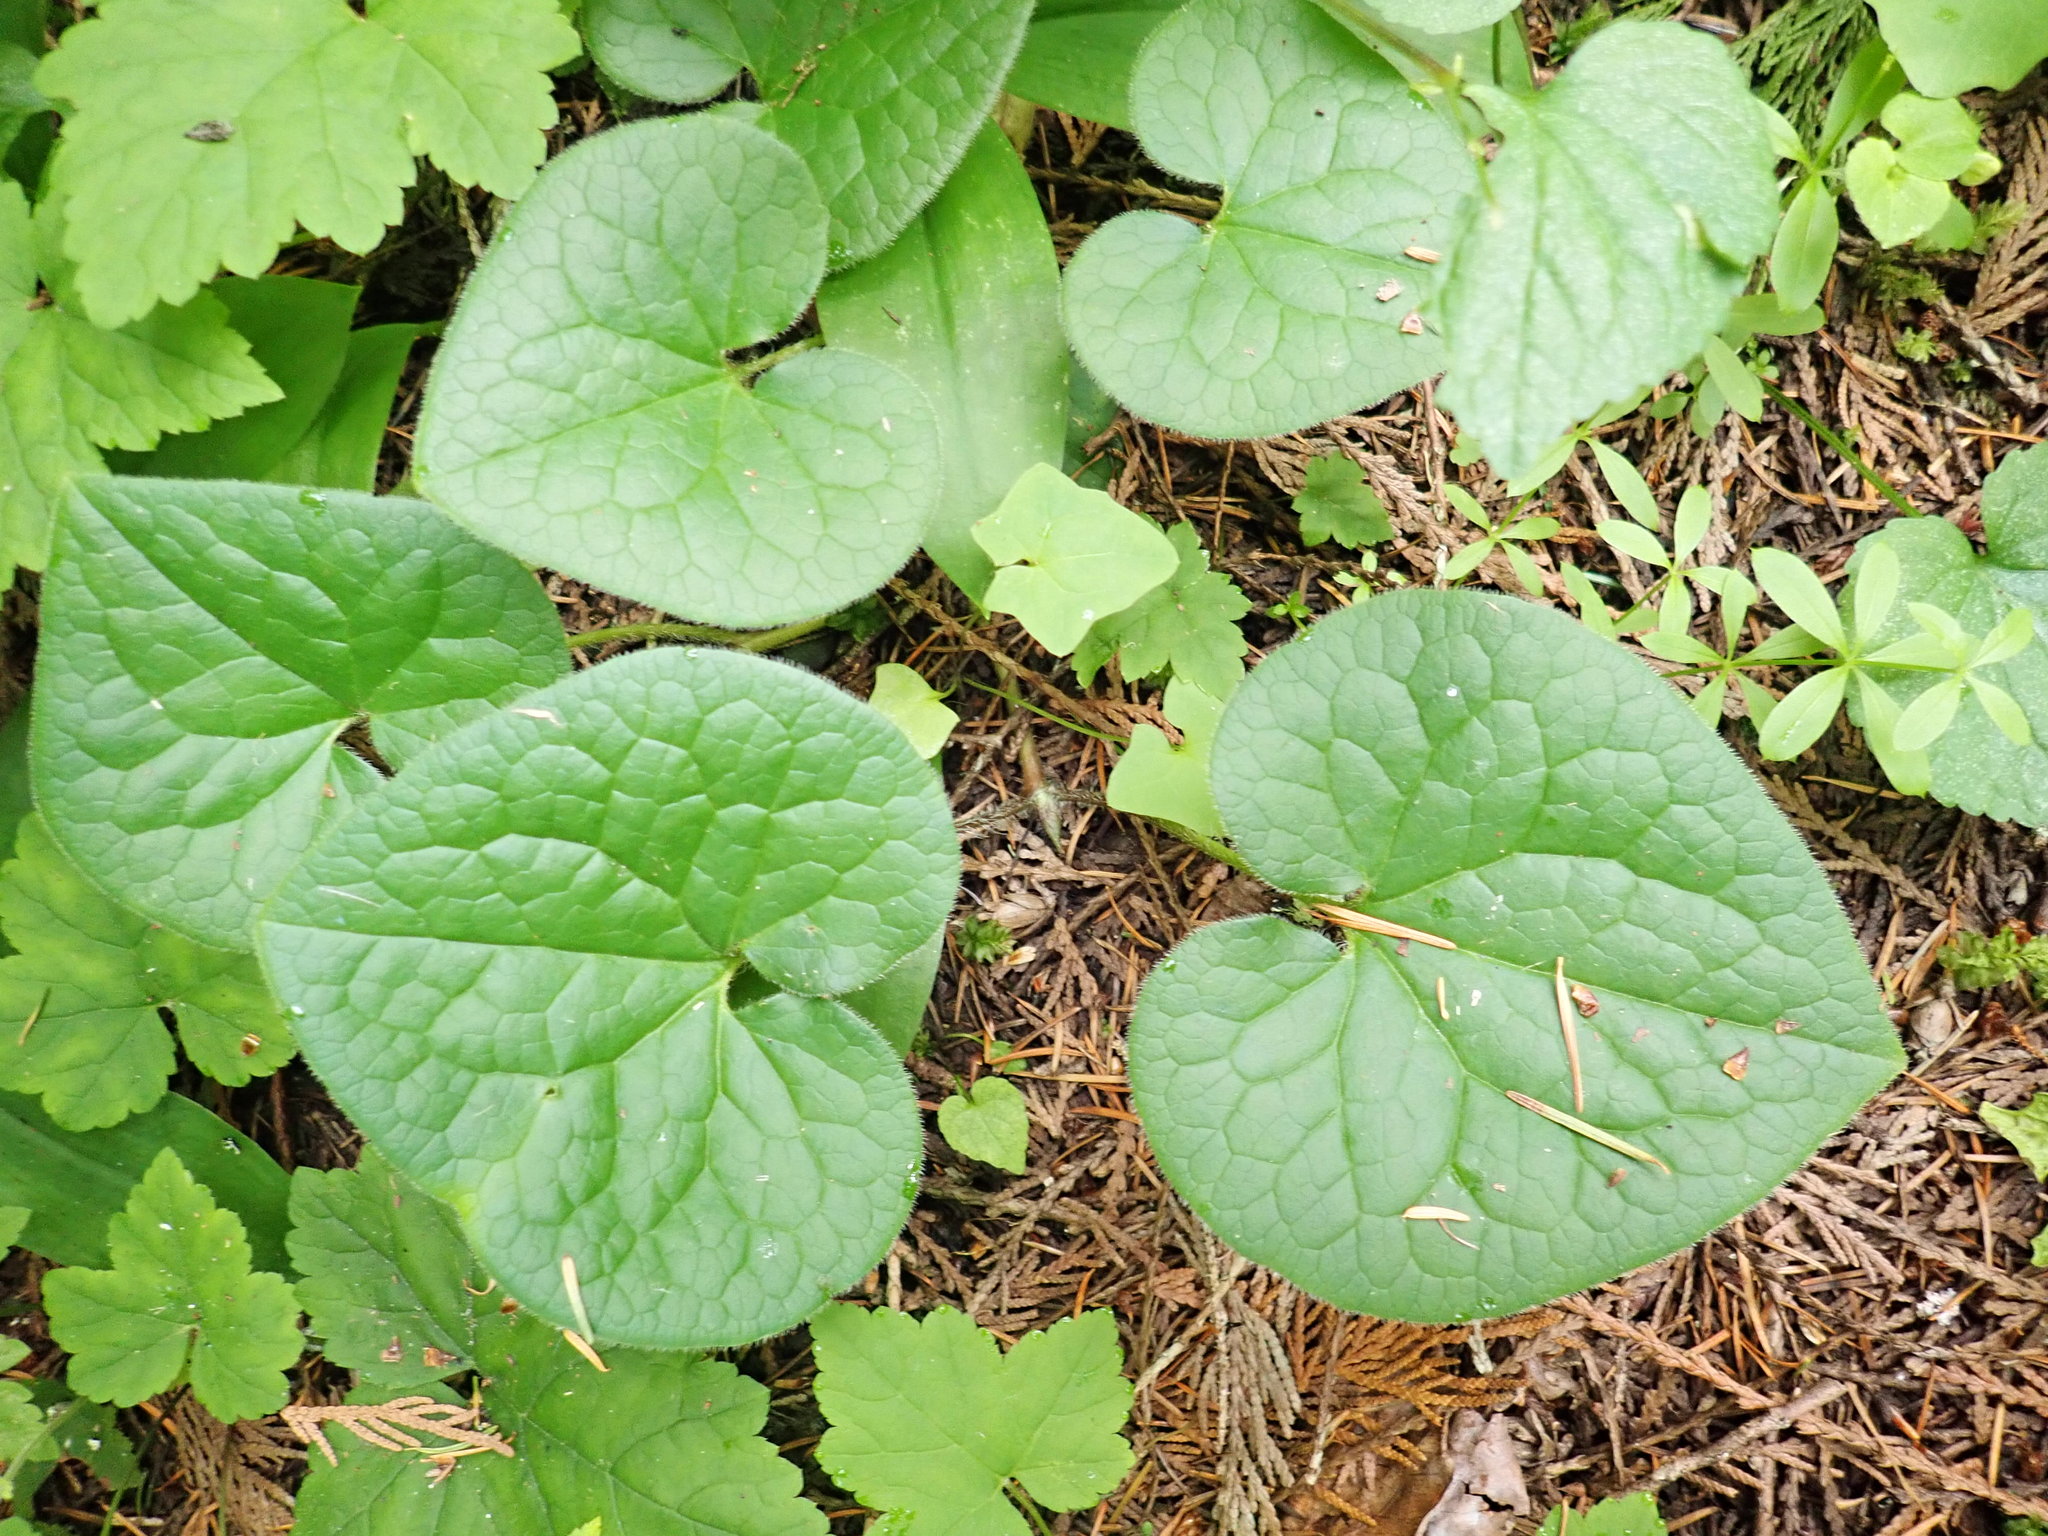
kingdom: Plantae
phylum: Tracheophyta
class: Magnoliopsida
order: Piperales
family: Aristolochiaceae
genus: Asarum
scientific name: Asarum caudatum
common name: Wild ginger
